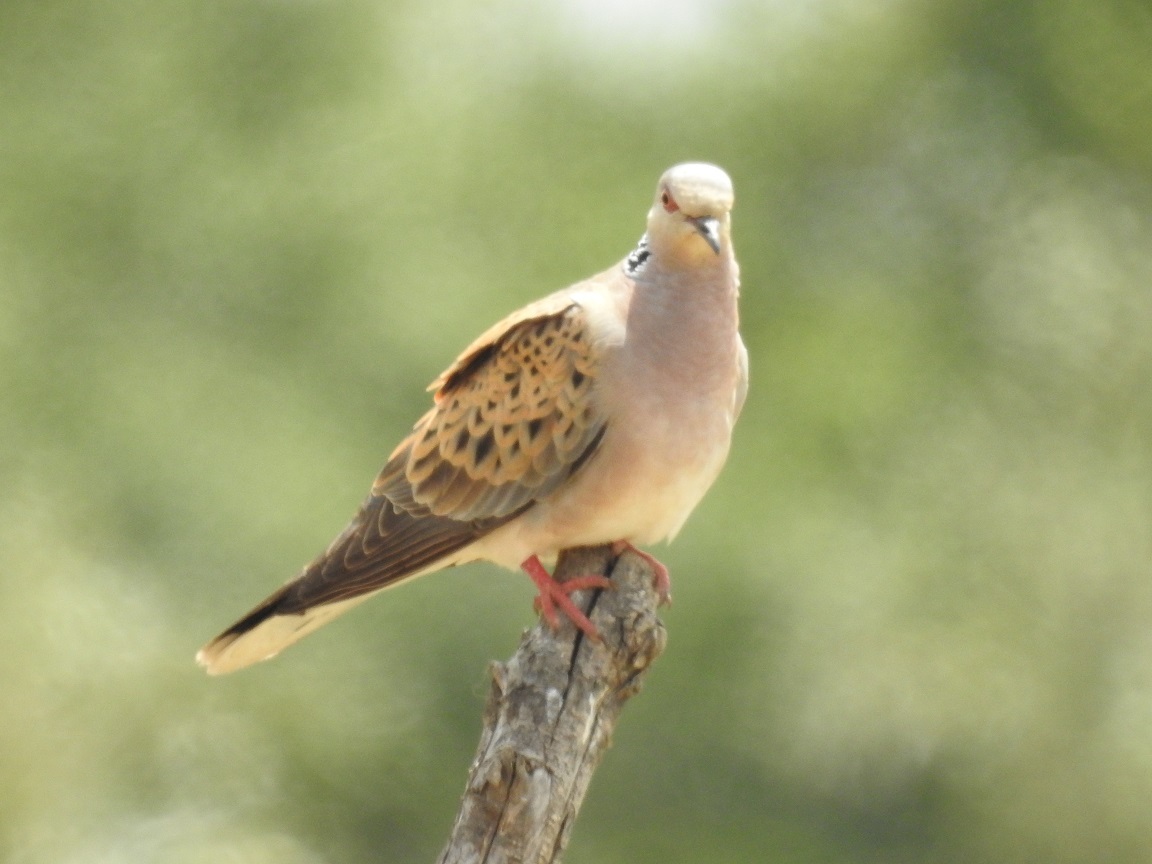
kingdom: Animalia
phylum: Chordata
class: Aves
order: Columbiformes
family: Columbidae
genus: Streptopelia
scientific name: Streptopelia turtur
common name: European turtle dove
